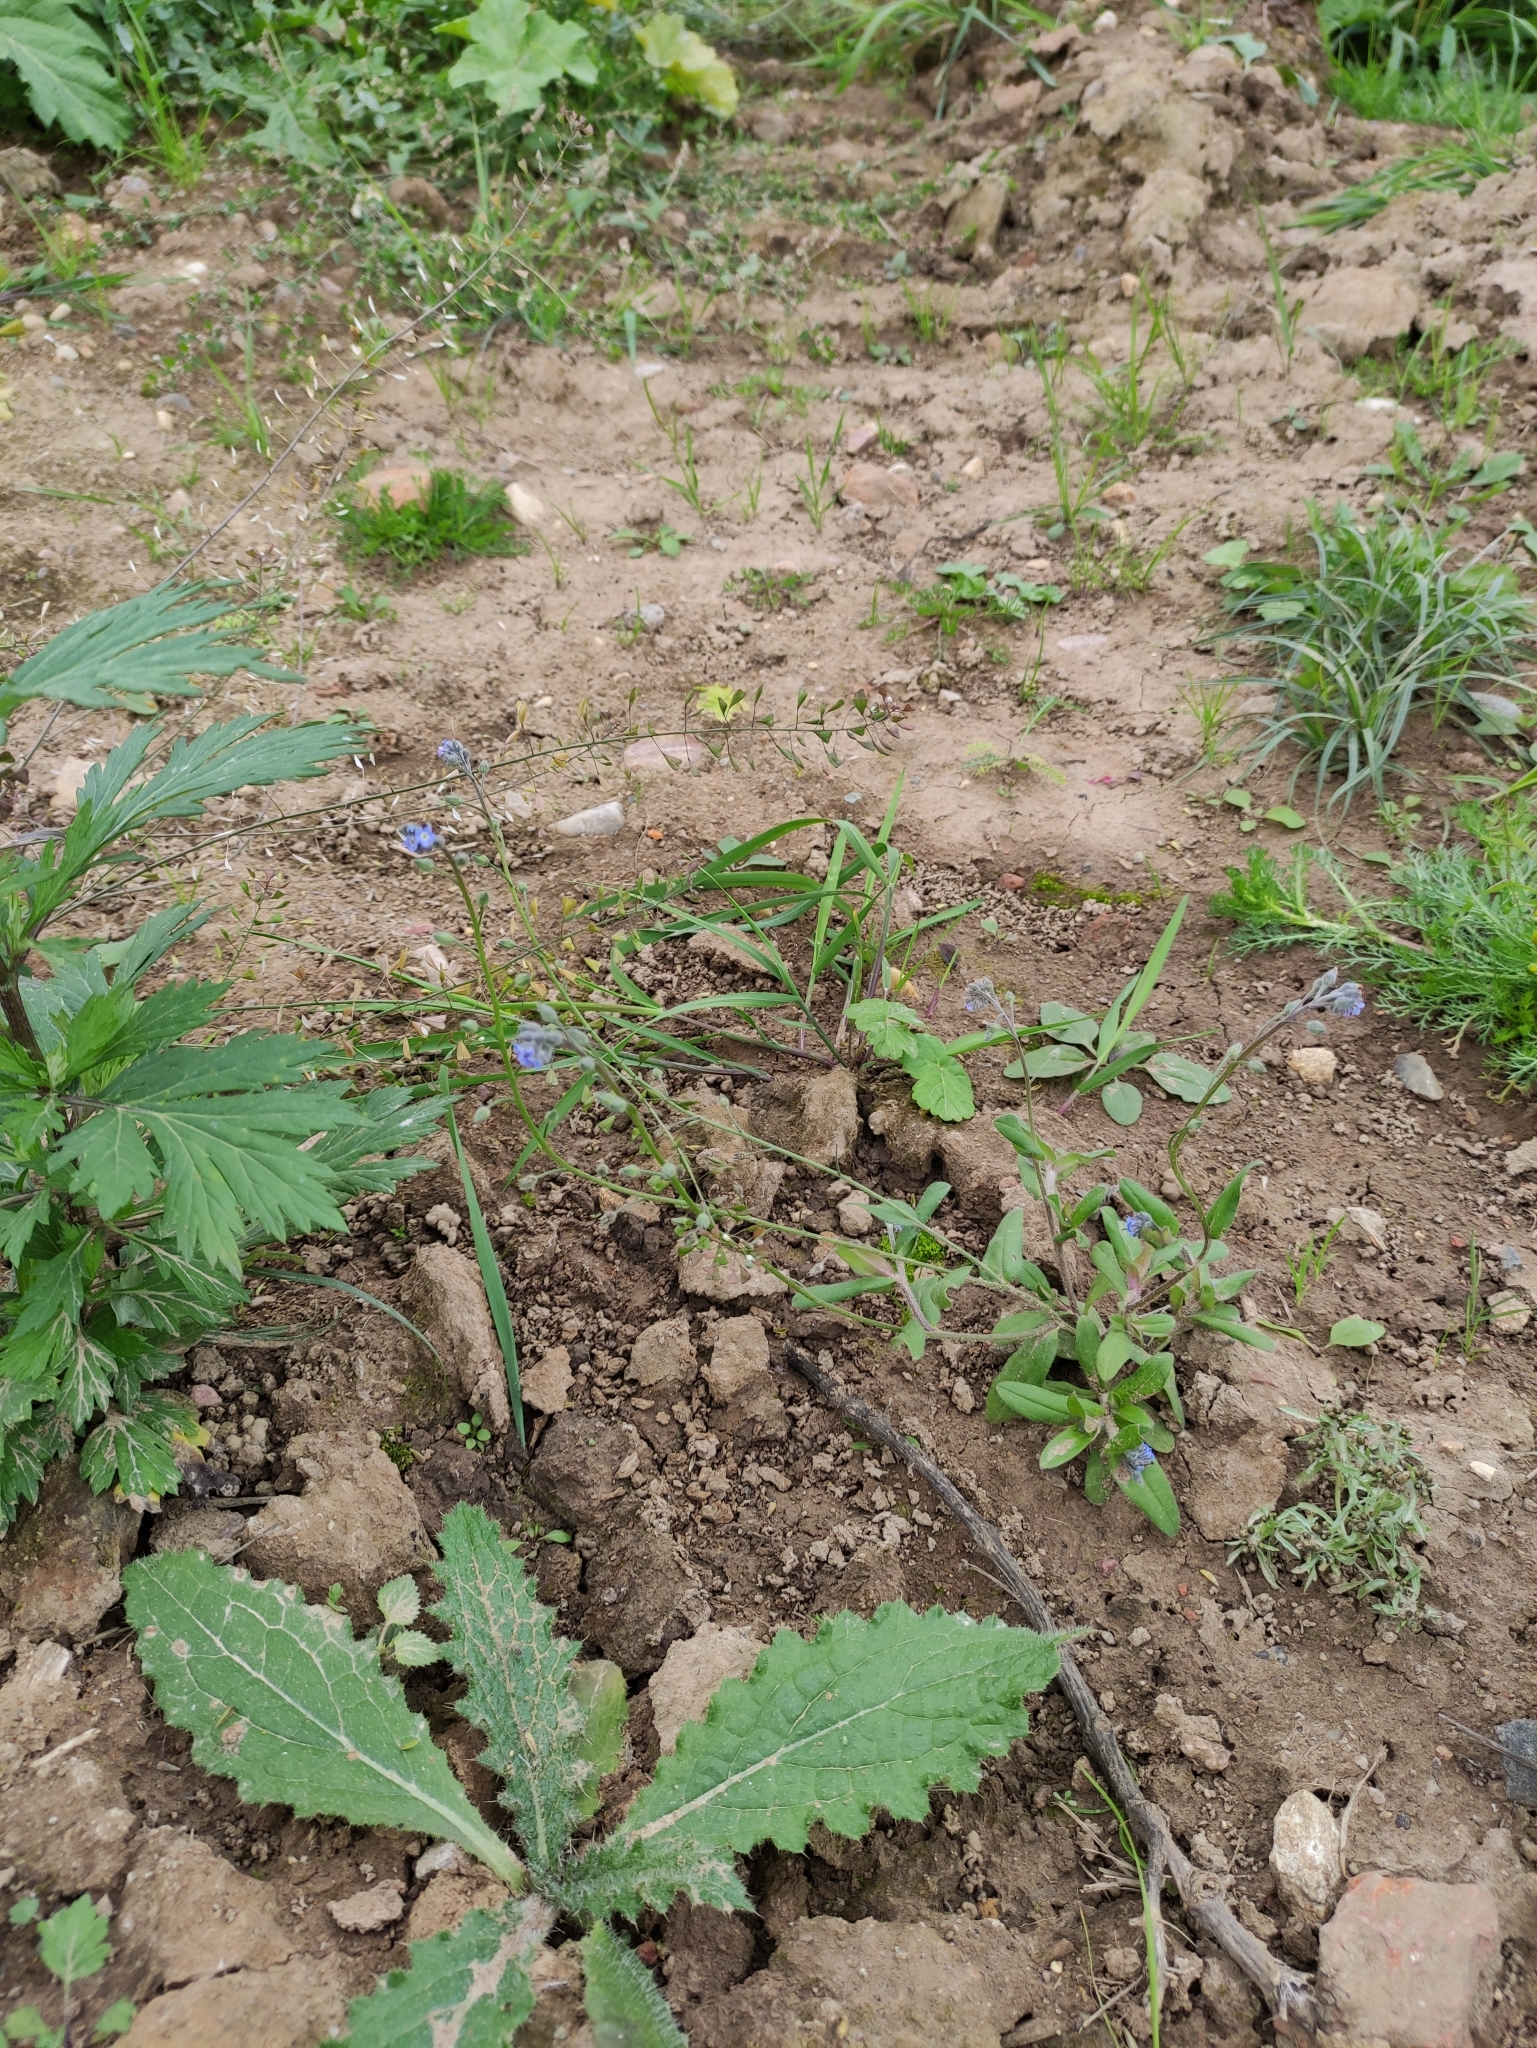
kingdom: Plantae
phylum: Tracheophyta
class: Magnoliopsida
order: Boraginales
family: Boraginaceae
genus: Myosotis
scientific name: Myosotis arvensis
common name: Field forget-me-not
